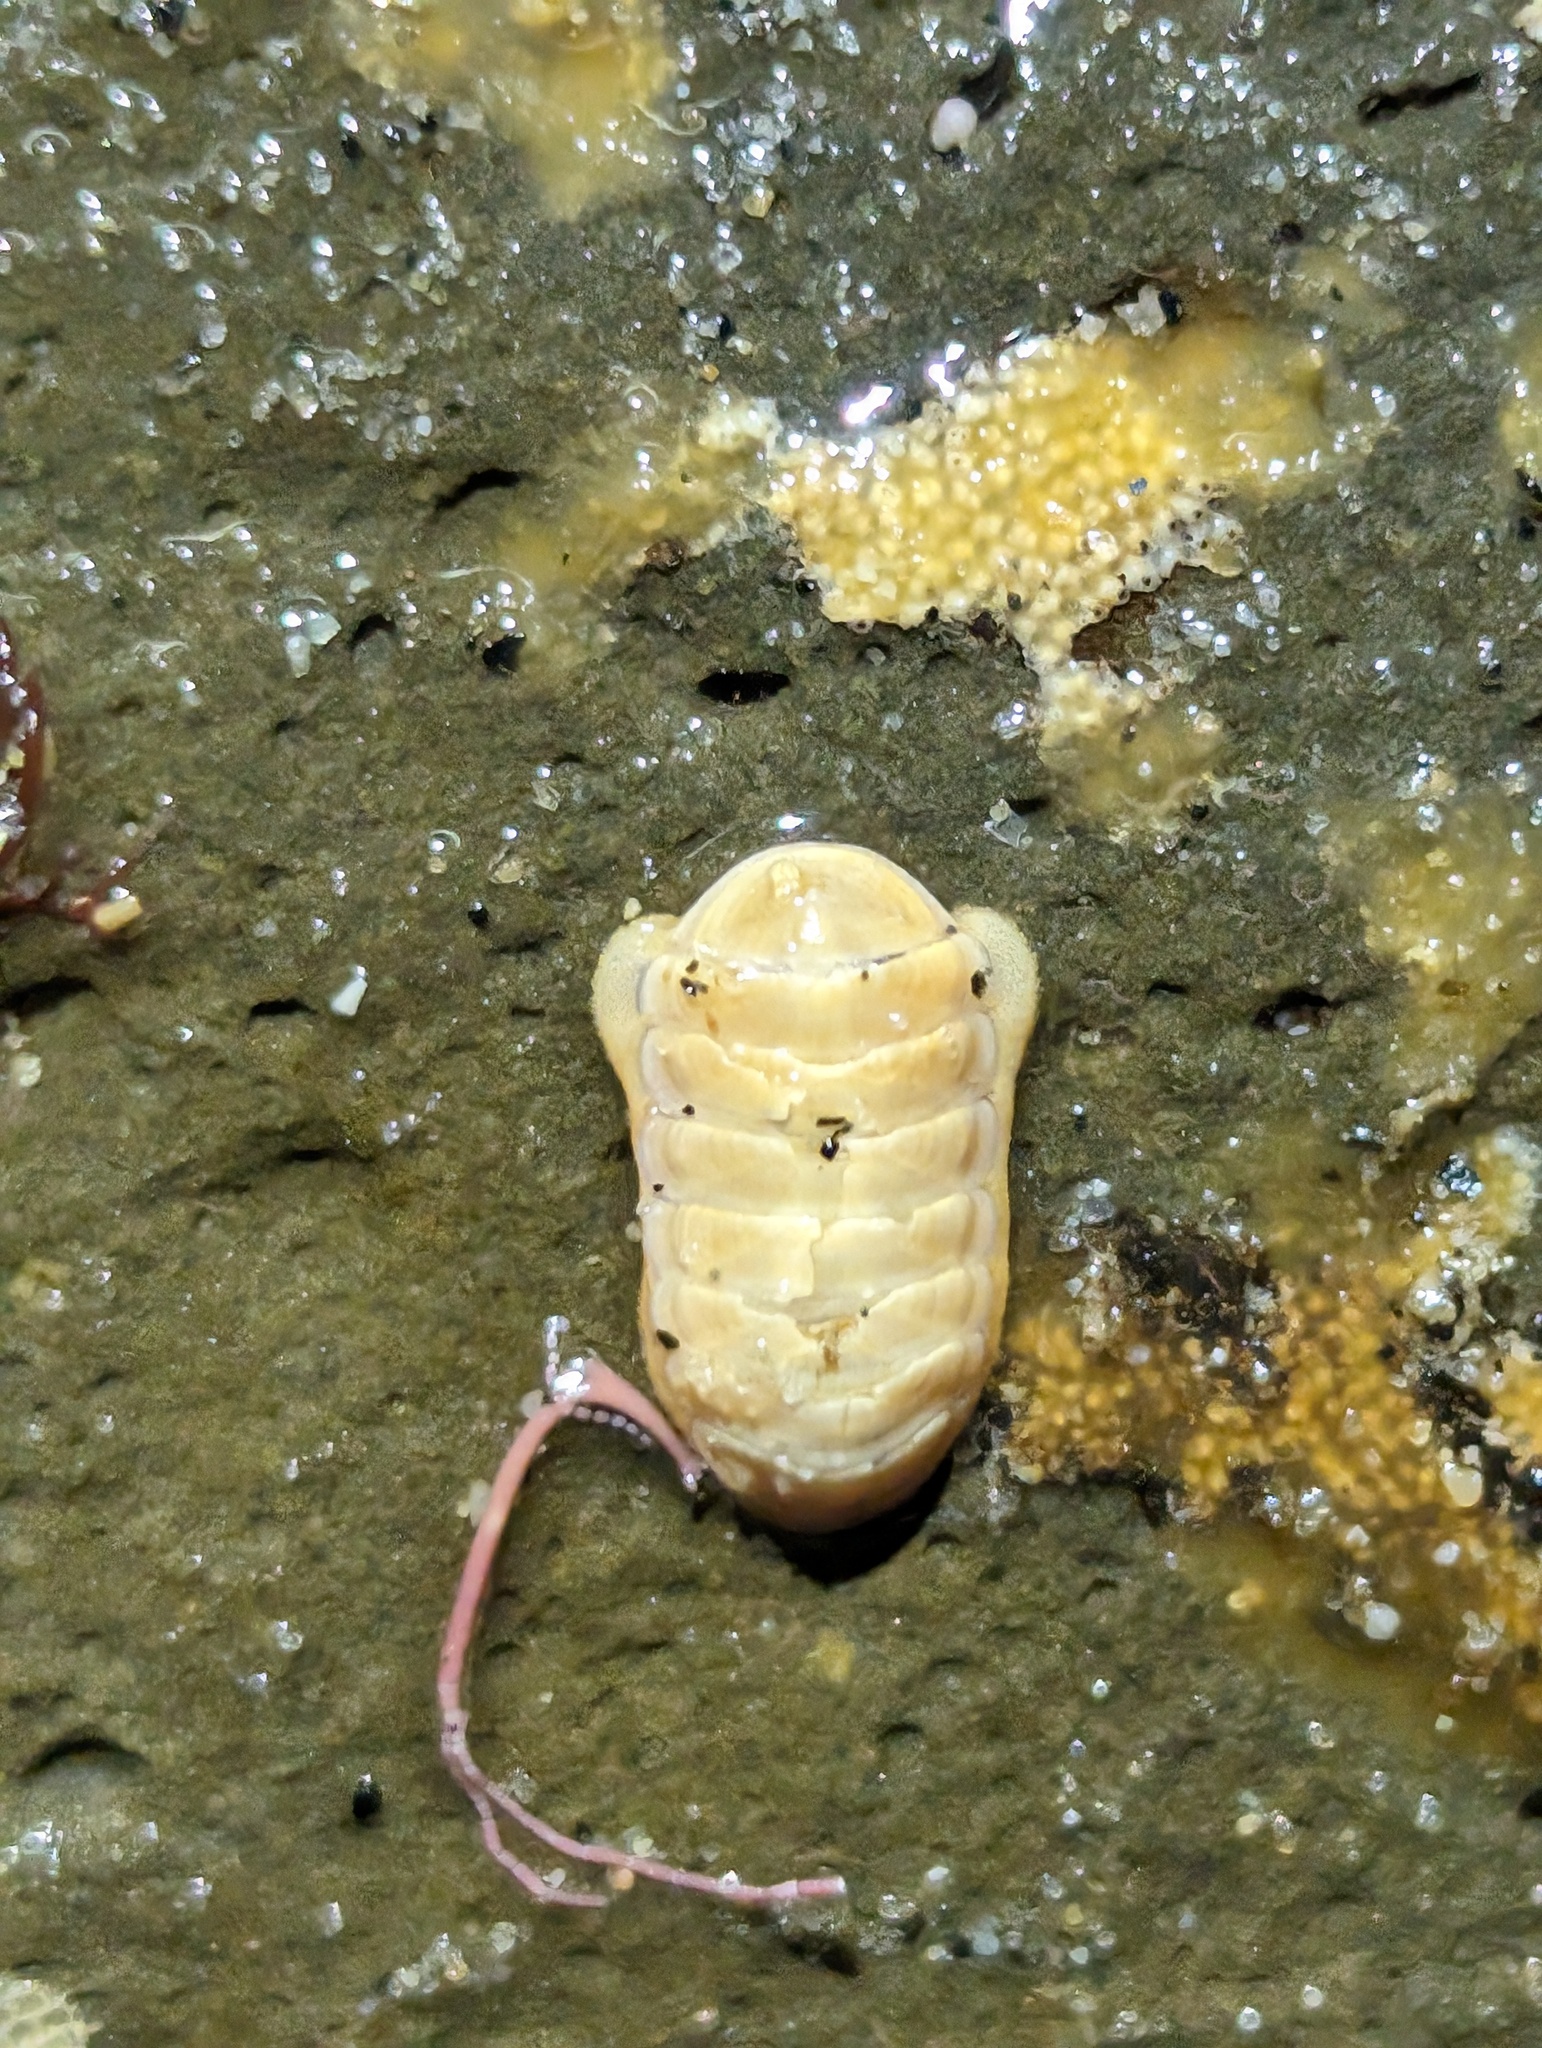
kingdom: Animalia
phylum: Mollusca
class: Polyplacophora
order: Lepidopleurida
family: Leptochitonidae
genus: Leptochiton
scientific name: Leptochiton rugatus
